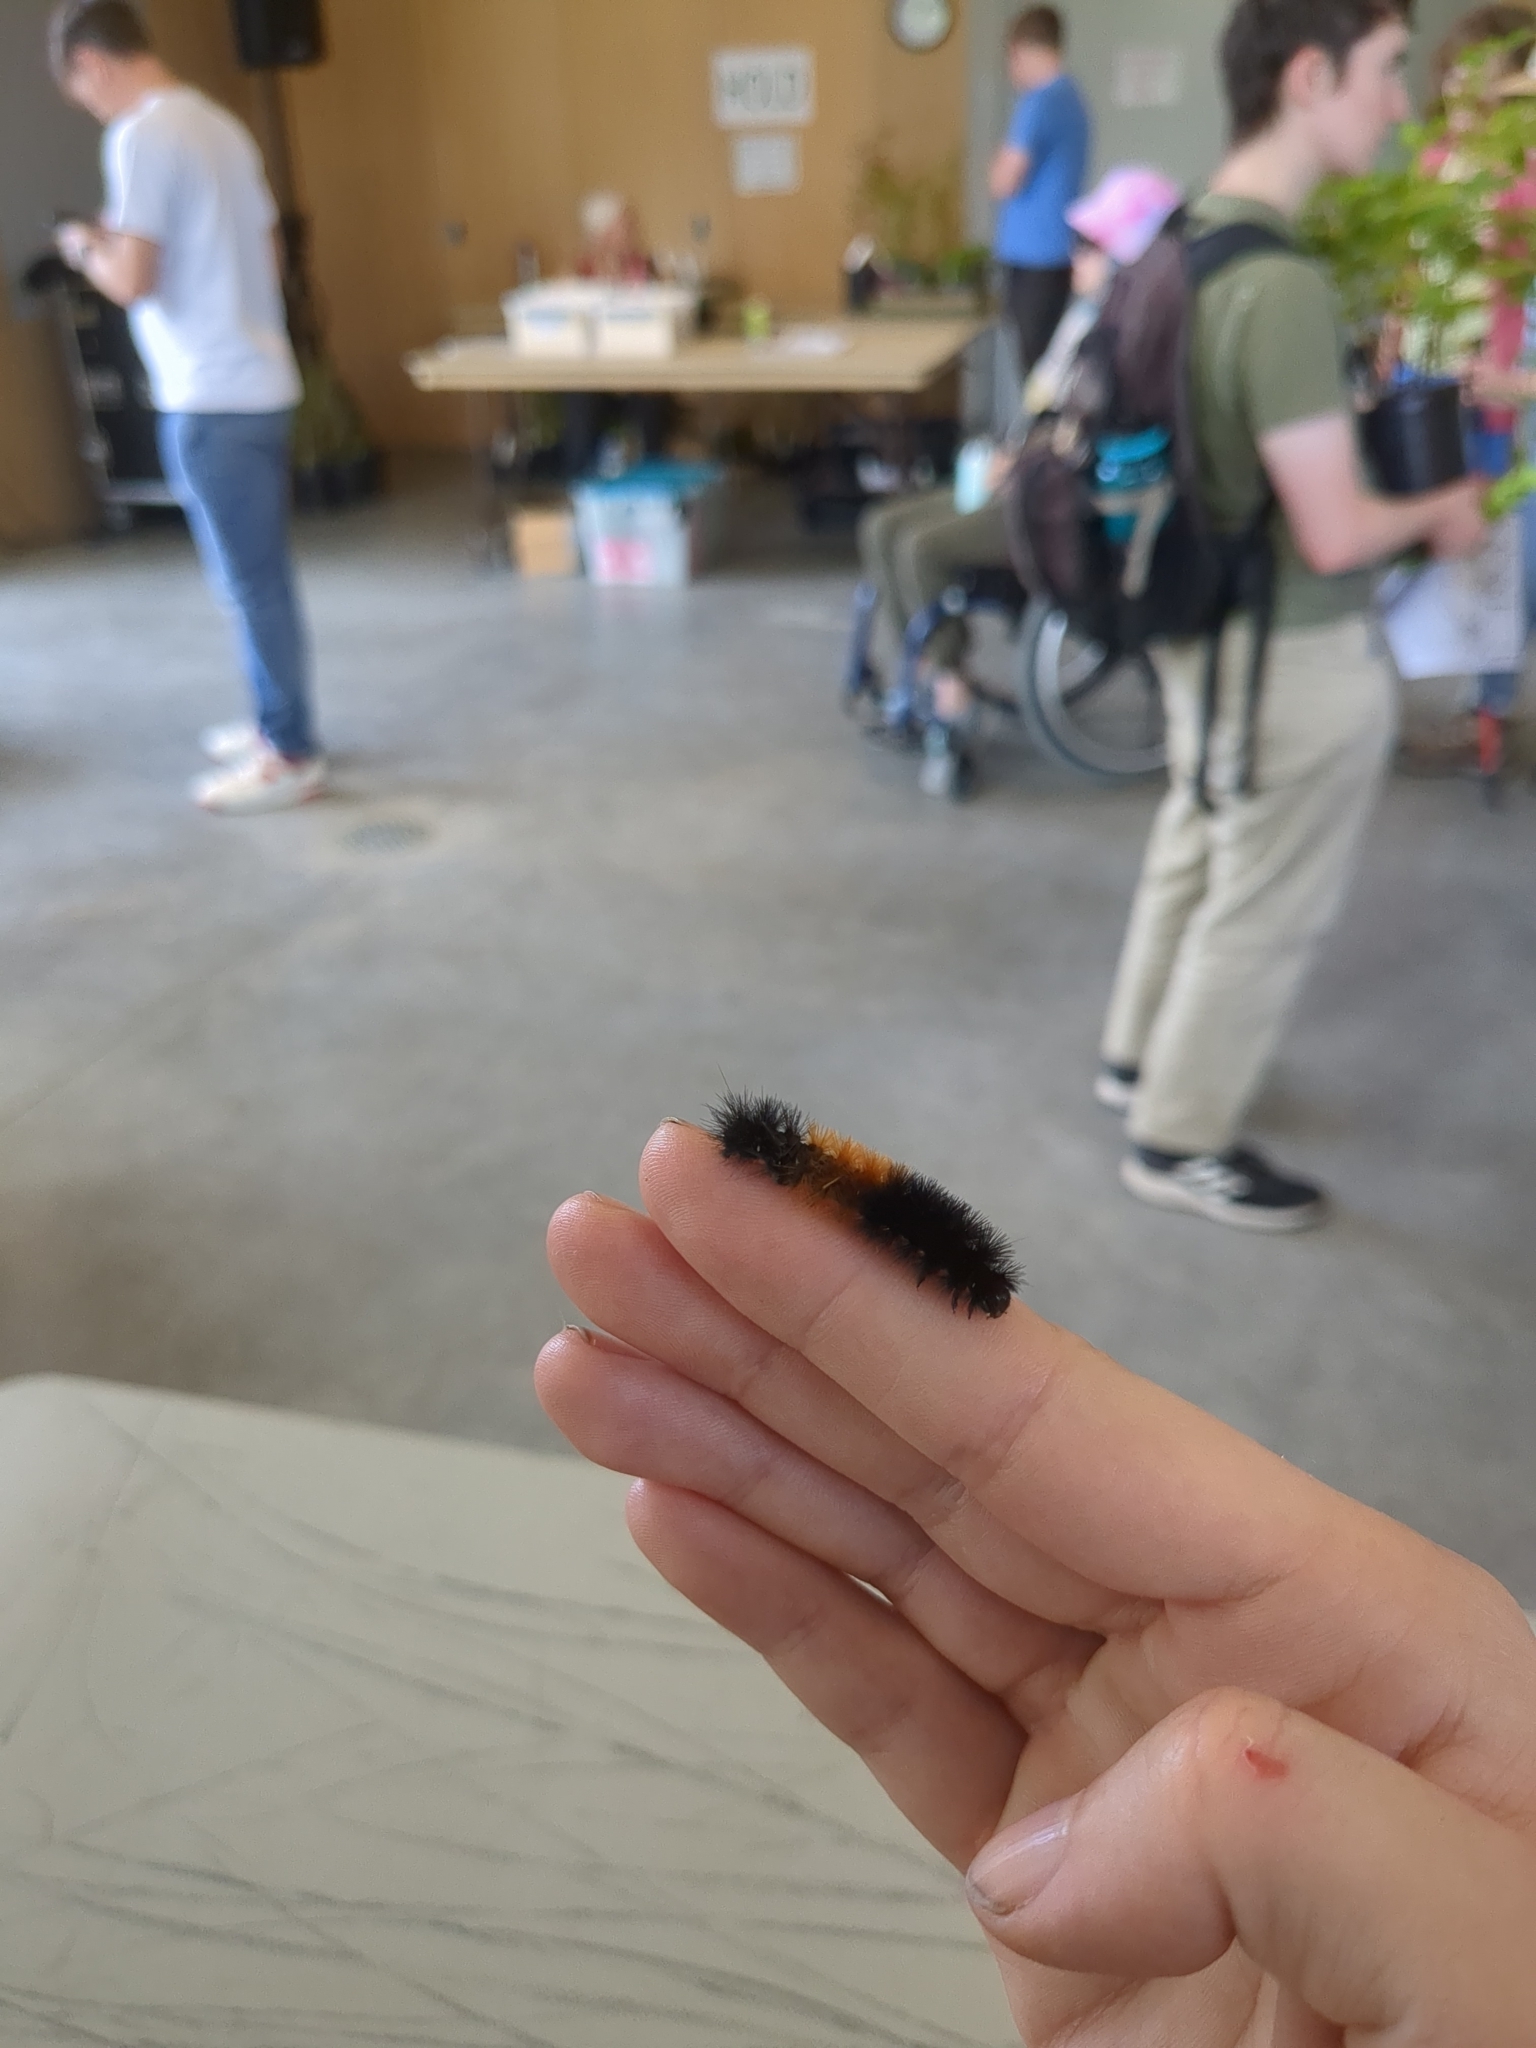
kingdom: Animalia
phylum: Arthropoda
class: Insecta
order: Lepidoptera
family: Erebidae
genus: Pyrrharctia
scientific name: Pyrrharctia isabella
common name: Isabella tiger moth
